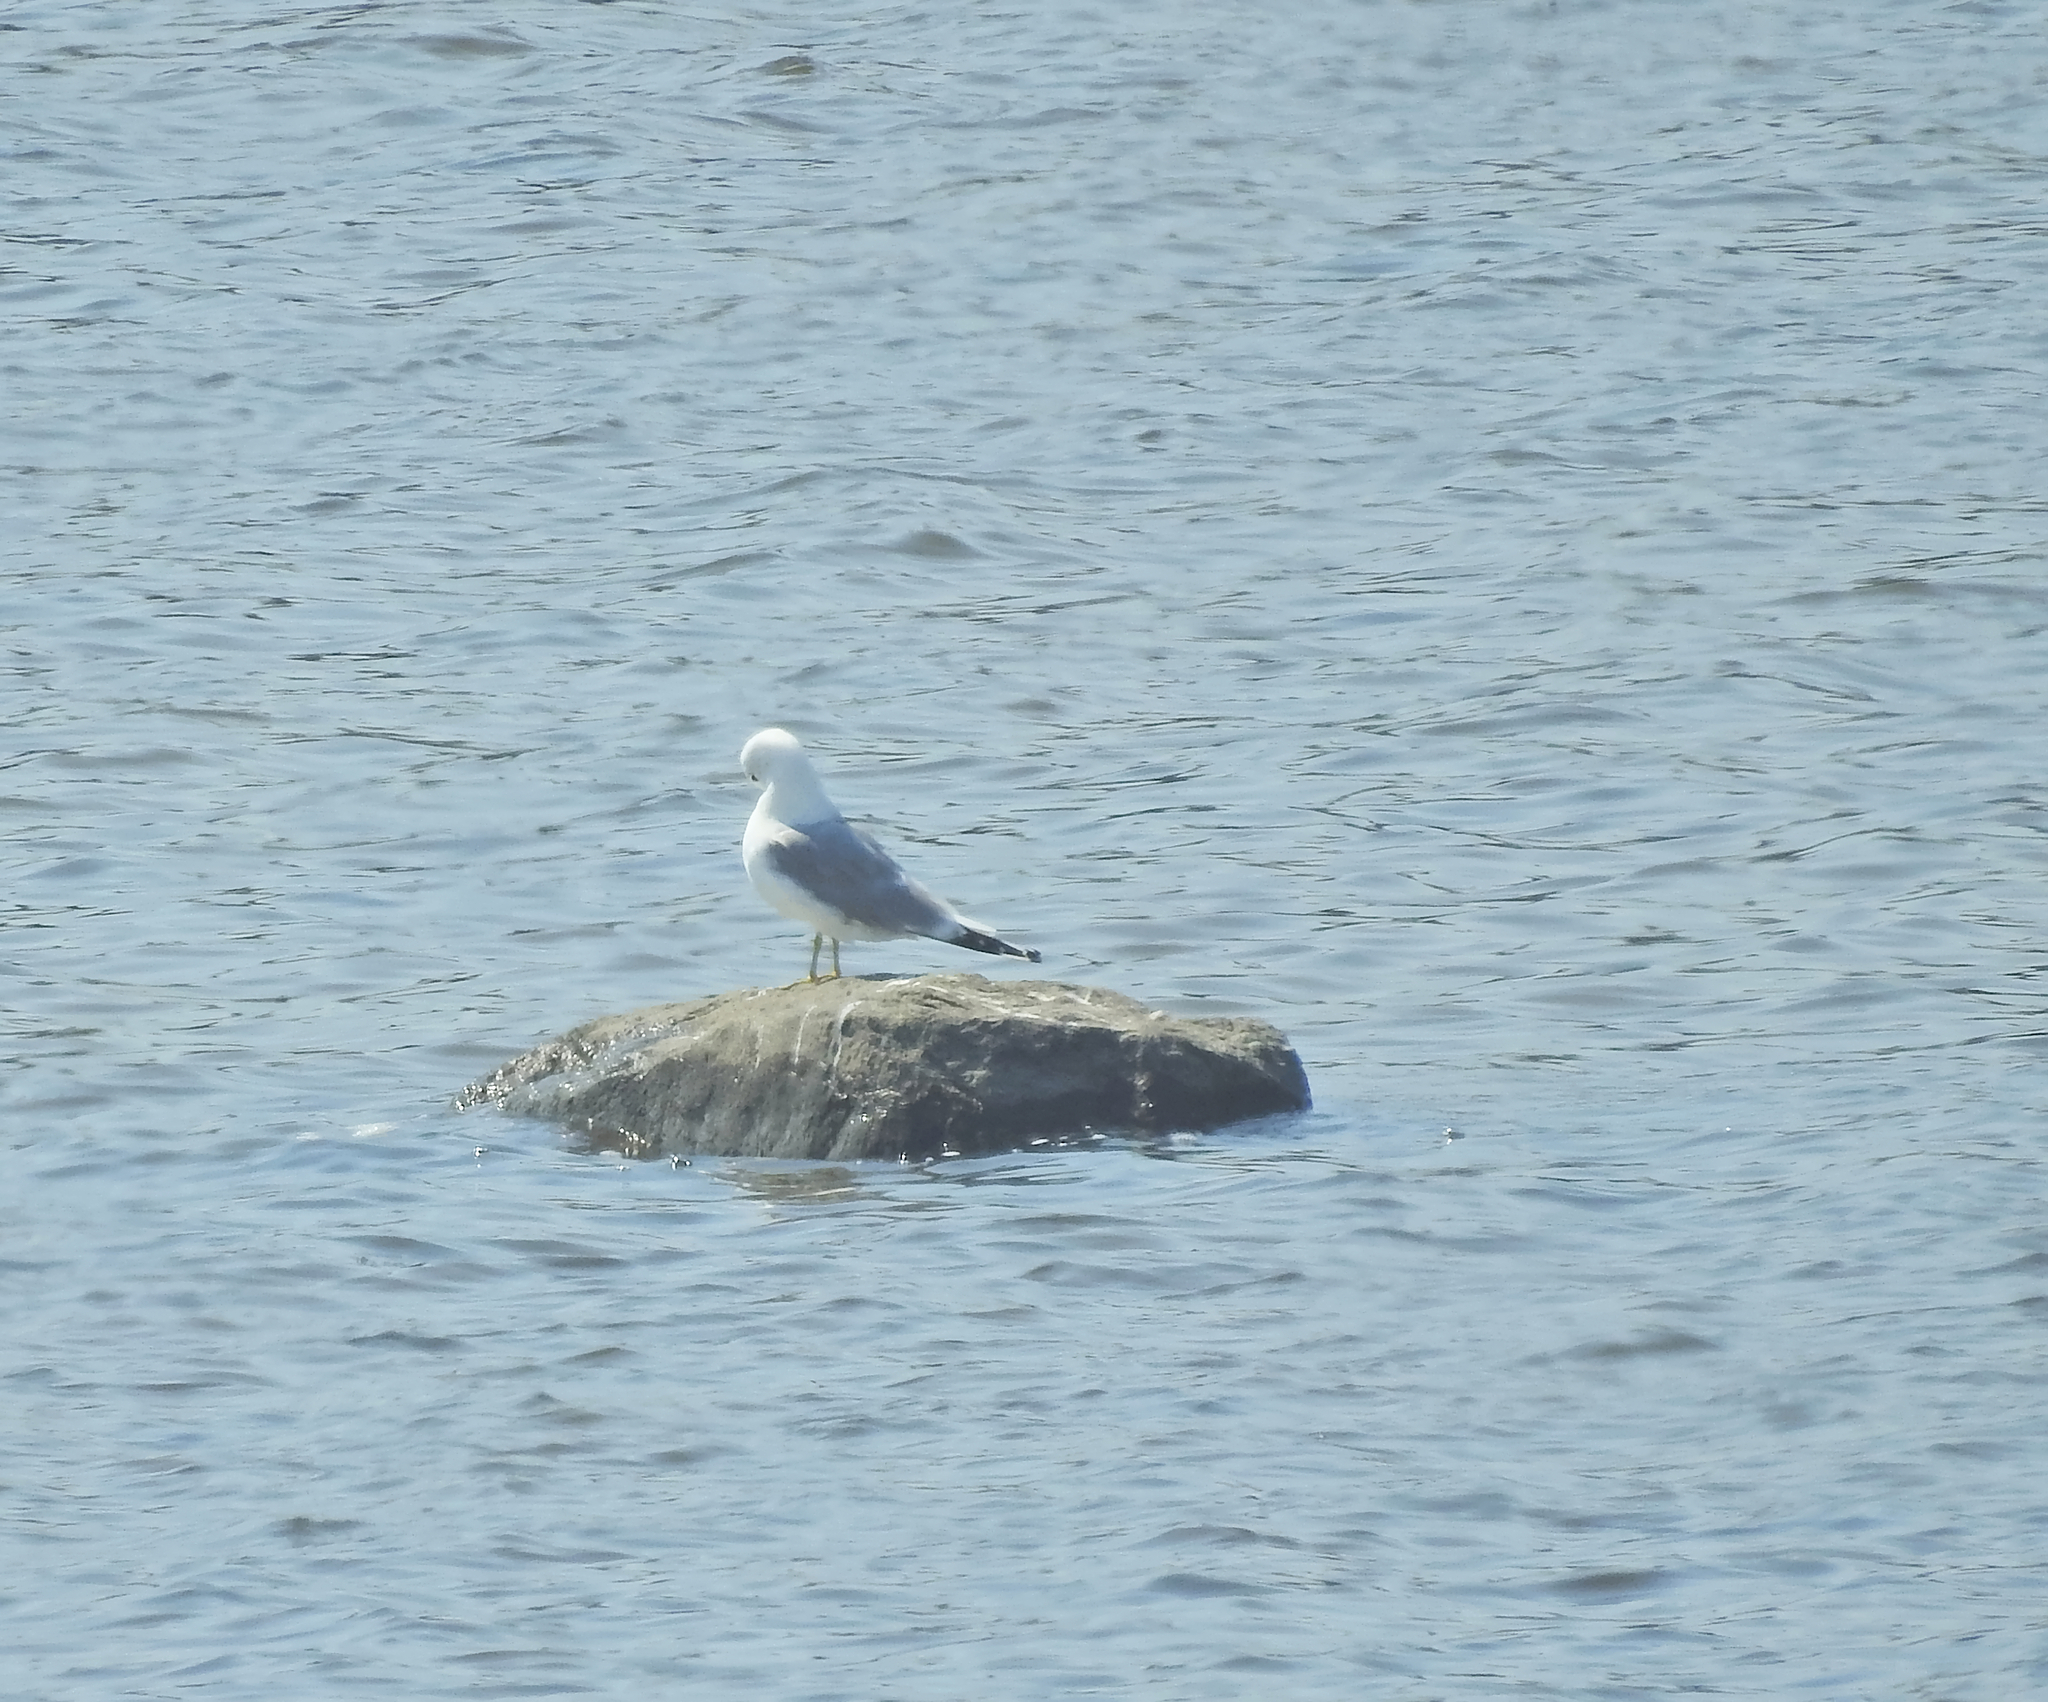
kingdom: Animalia
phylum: Chordata
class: Aves
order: Charadriiformes
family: Laridae
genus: Larus
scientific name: Larus canus
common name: Mew gull
